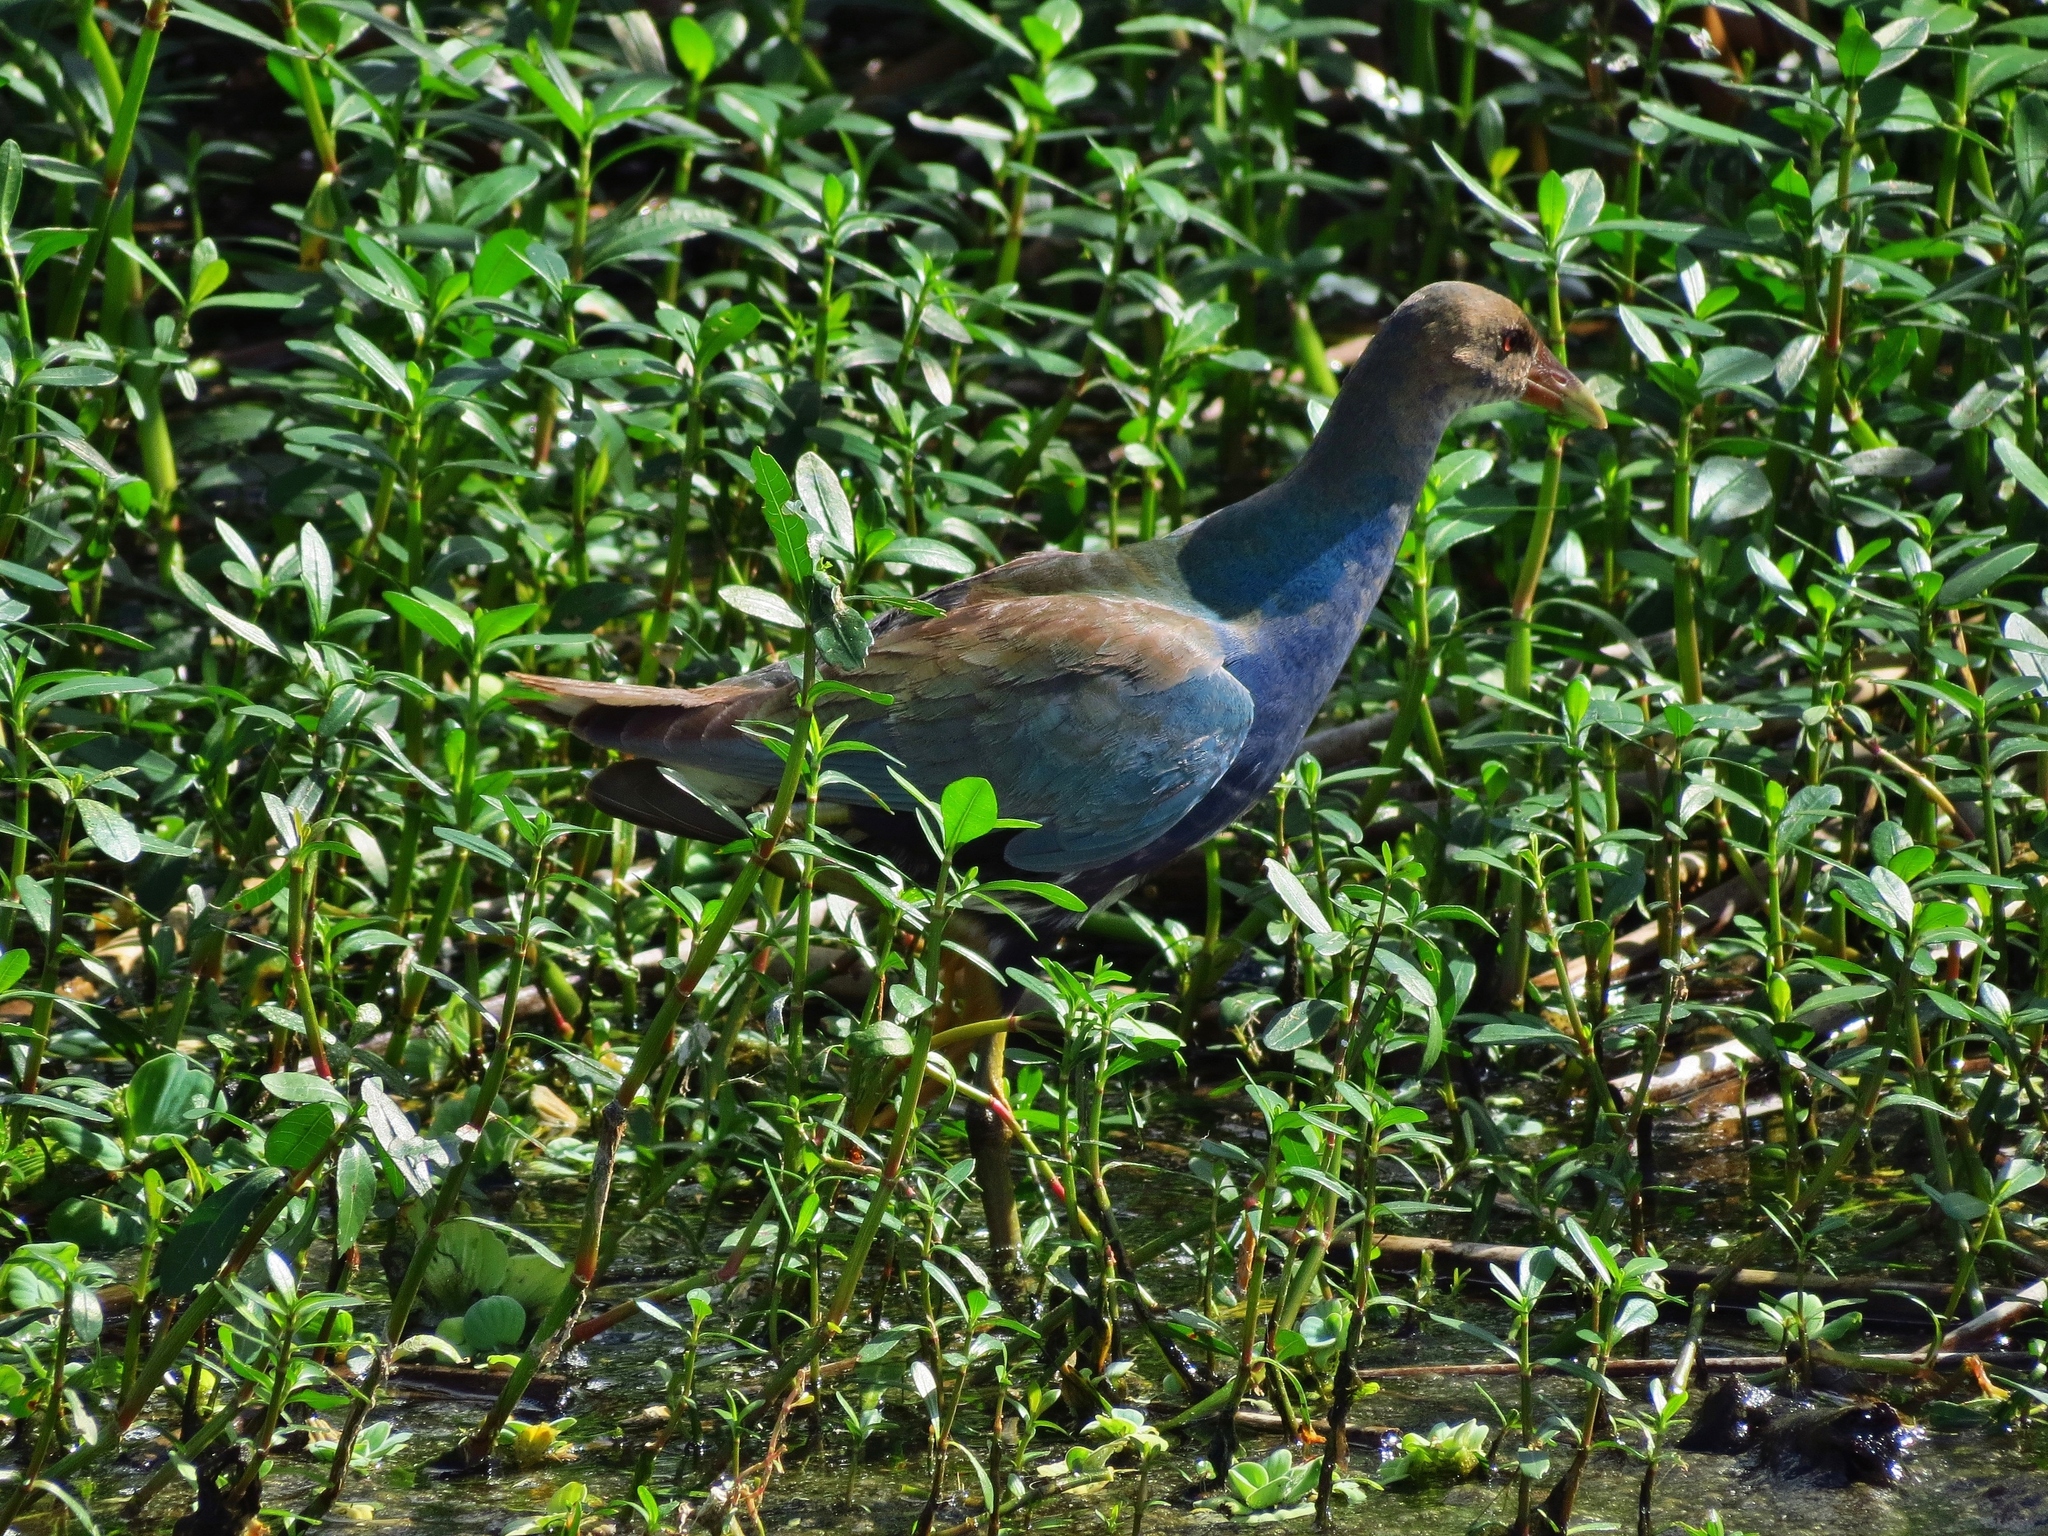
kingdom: Animalia
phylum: Chordata
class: Aves
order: Gruiformes
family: Rallidae
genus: Porphyrio
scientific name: Porphyrio martinica
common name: Purple gallinule
